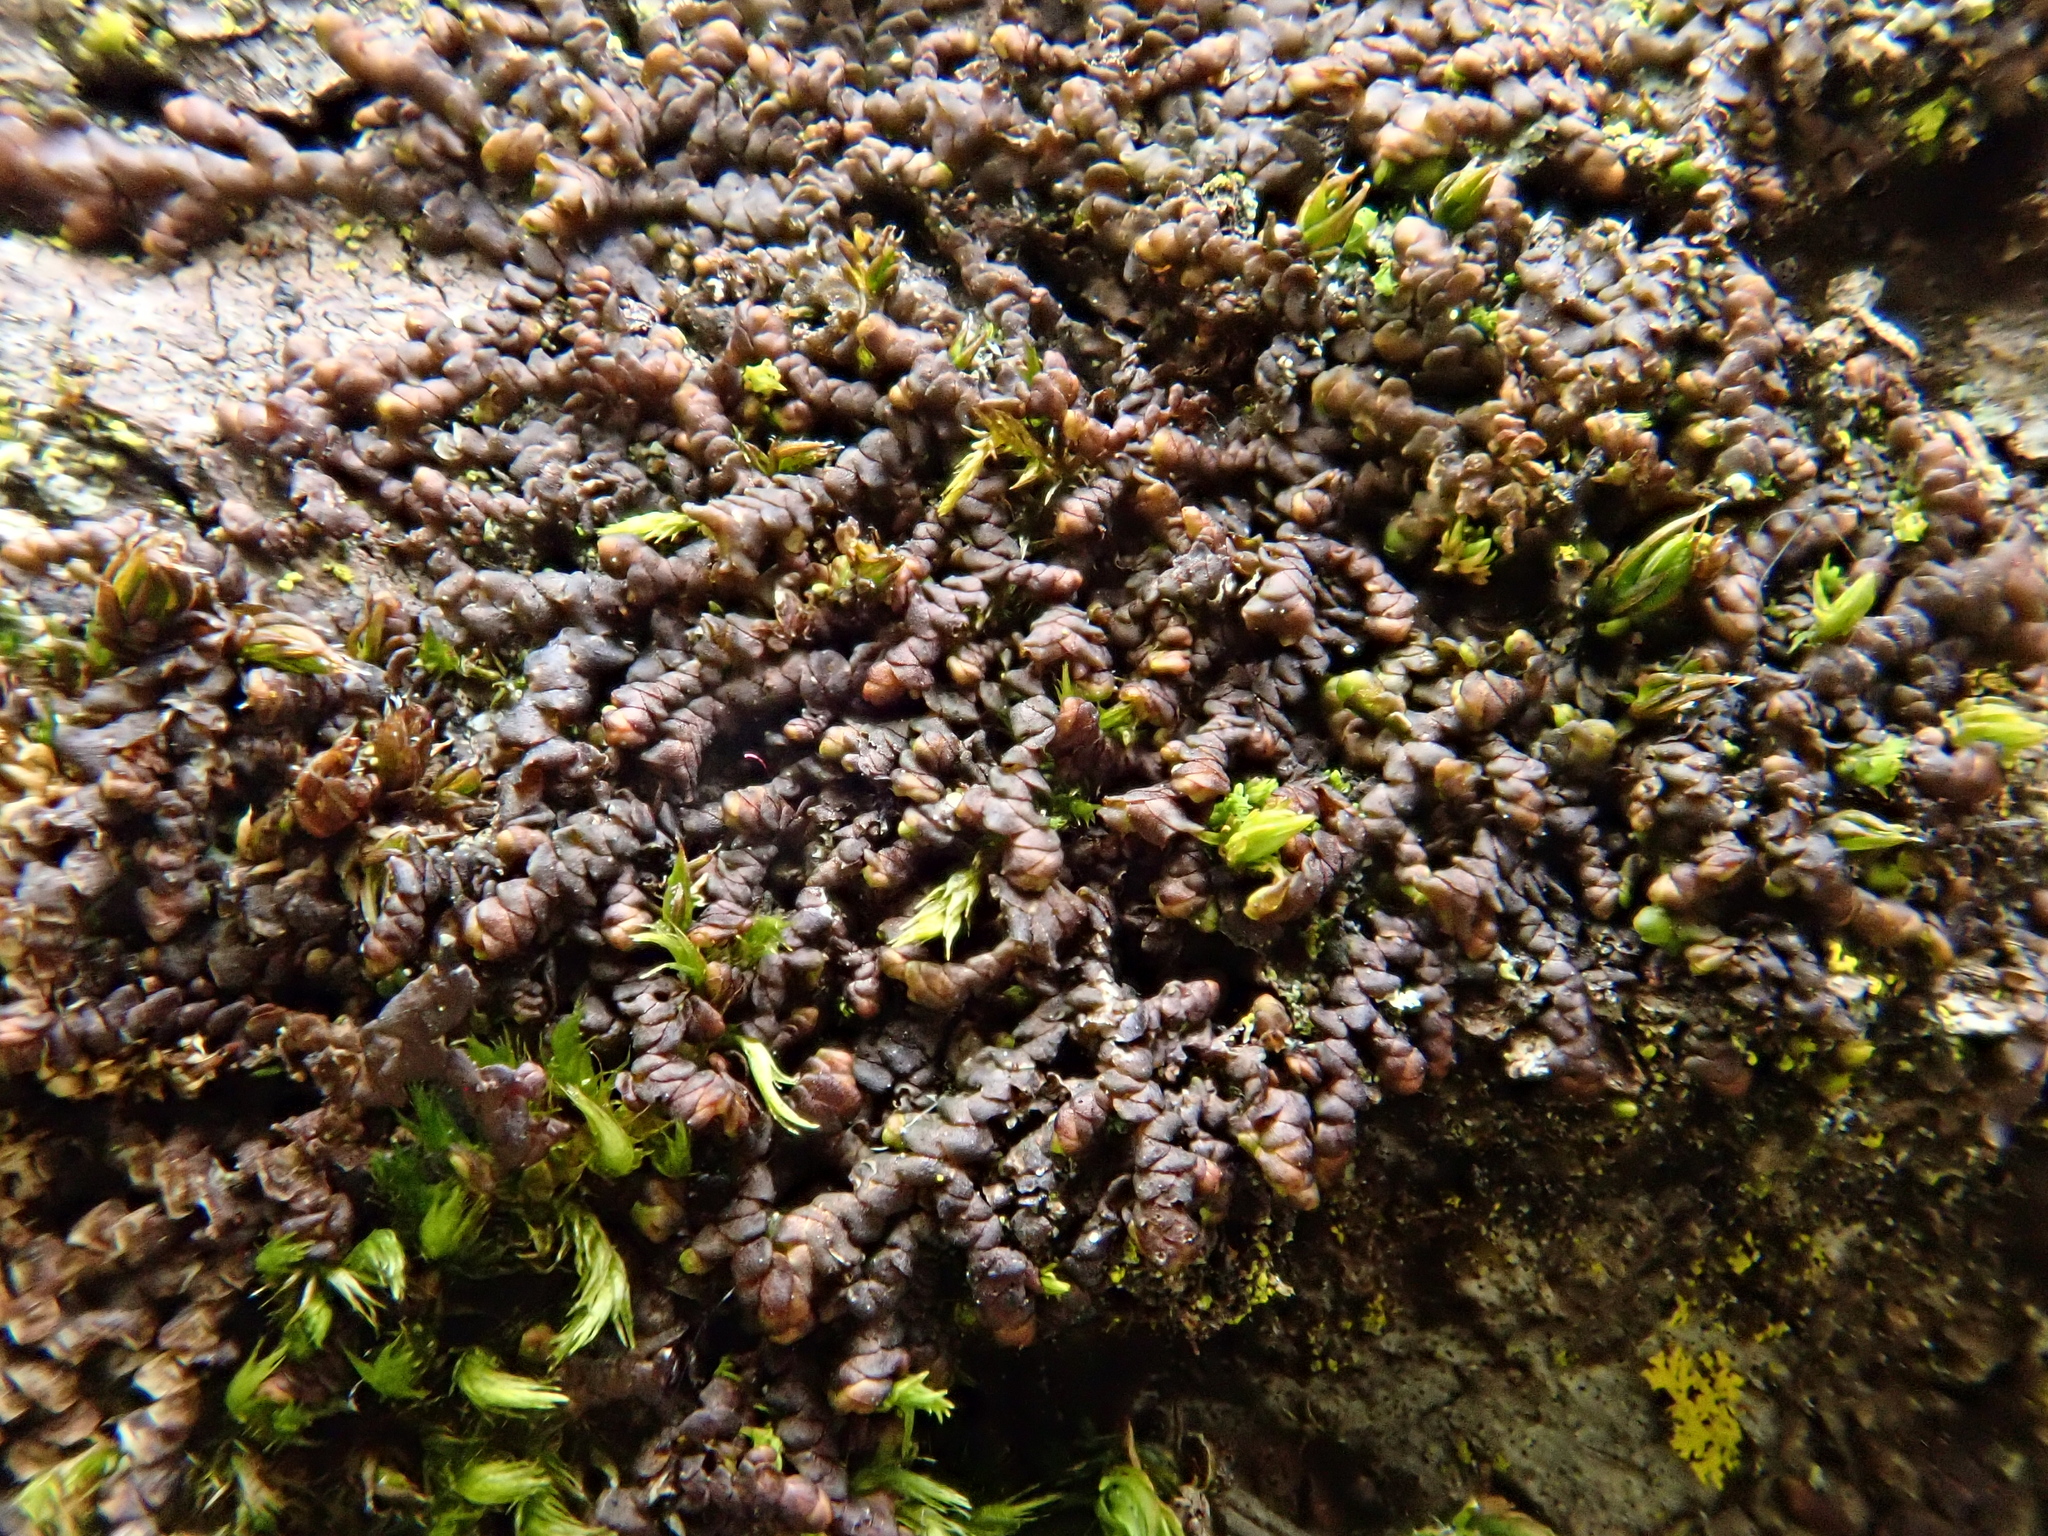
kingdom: Plantae
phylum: Marchantiophyta
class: Jungermanniopsida
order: Porellales
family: Frullaniaceae
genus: Frullania
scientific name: Frullania dilatata
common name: Dilated scalewort
